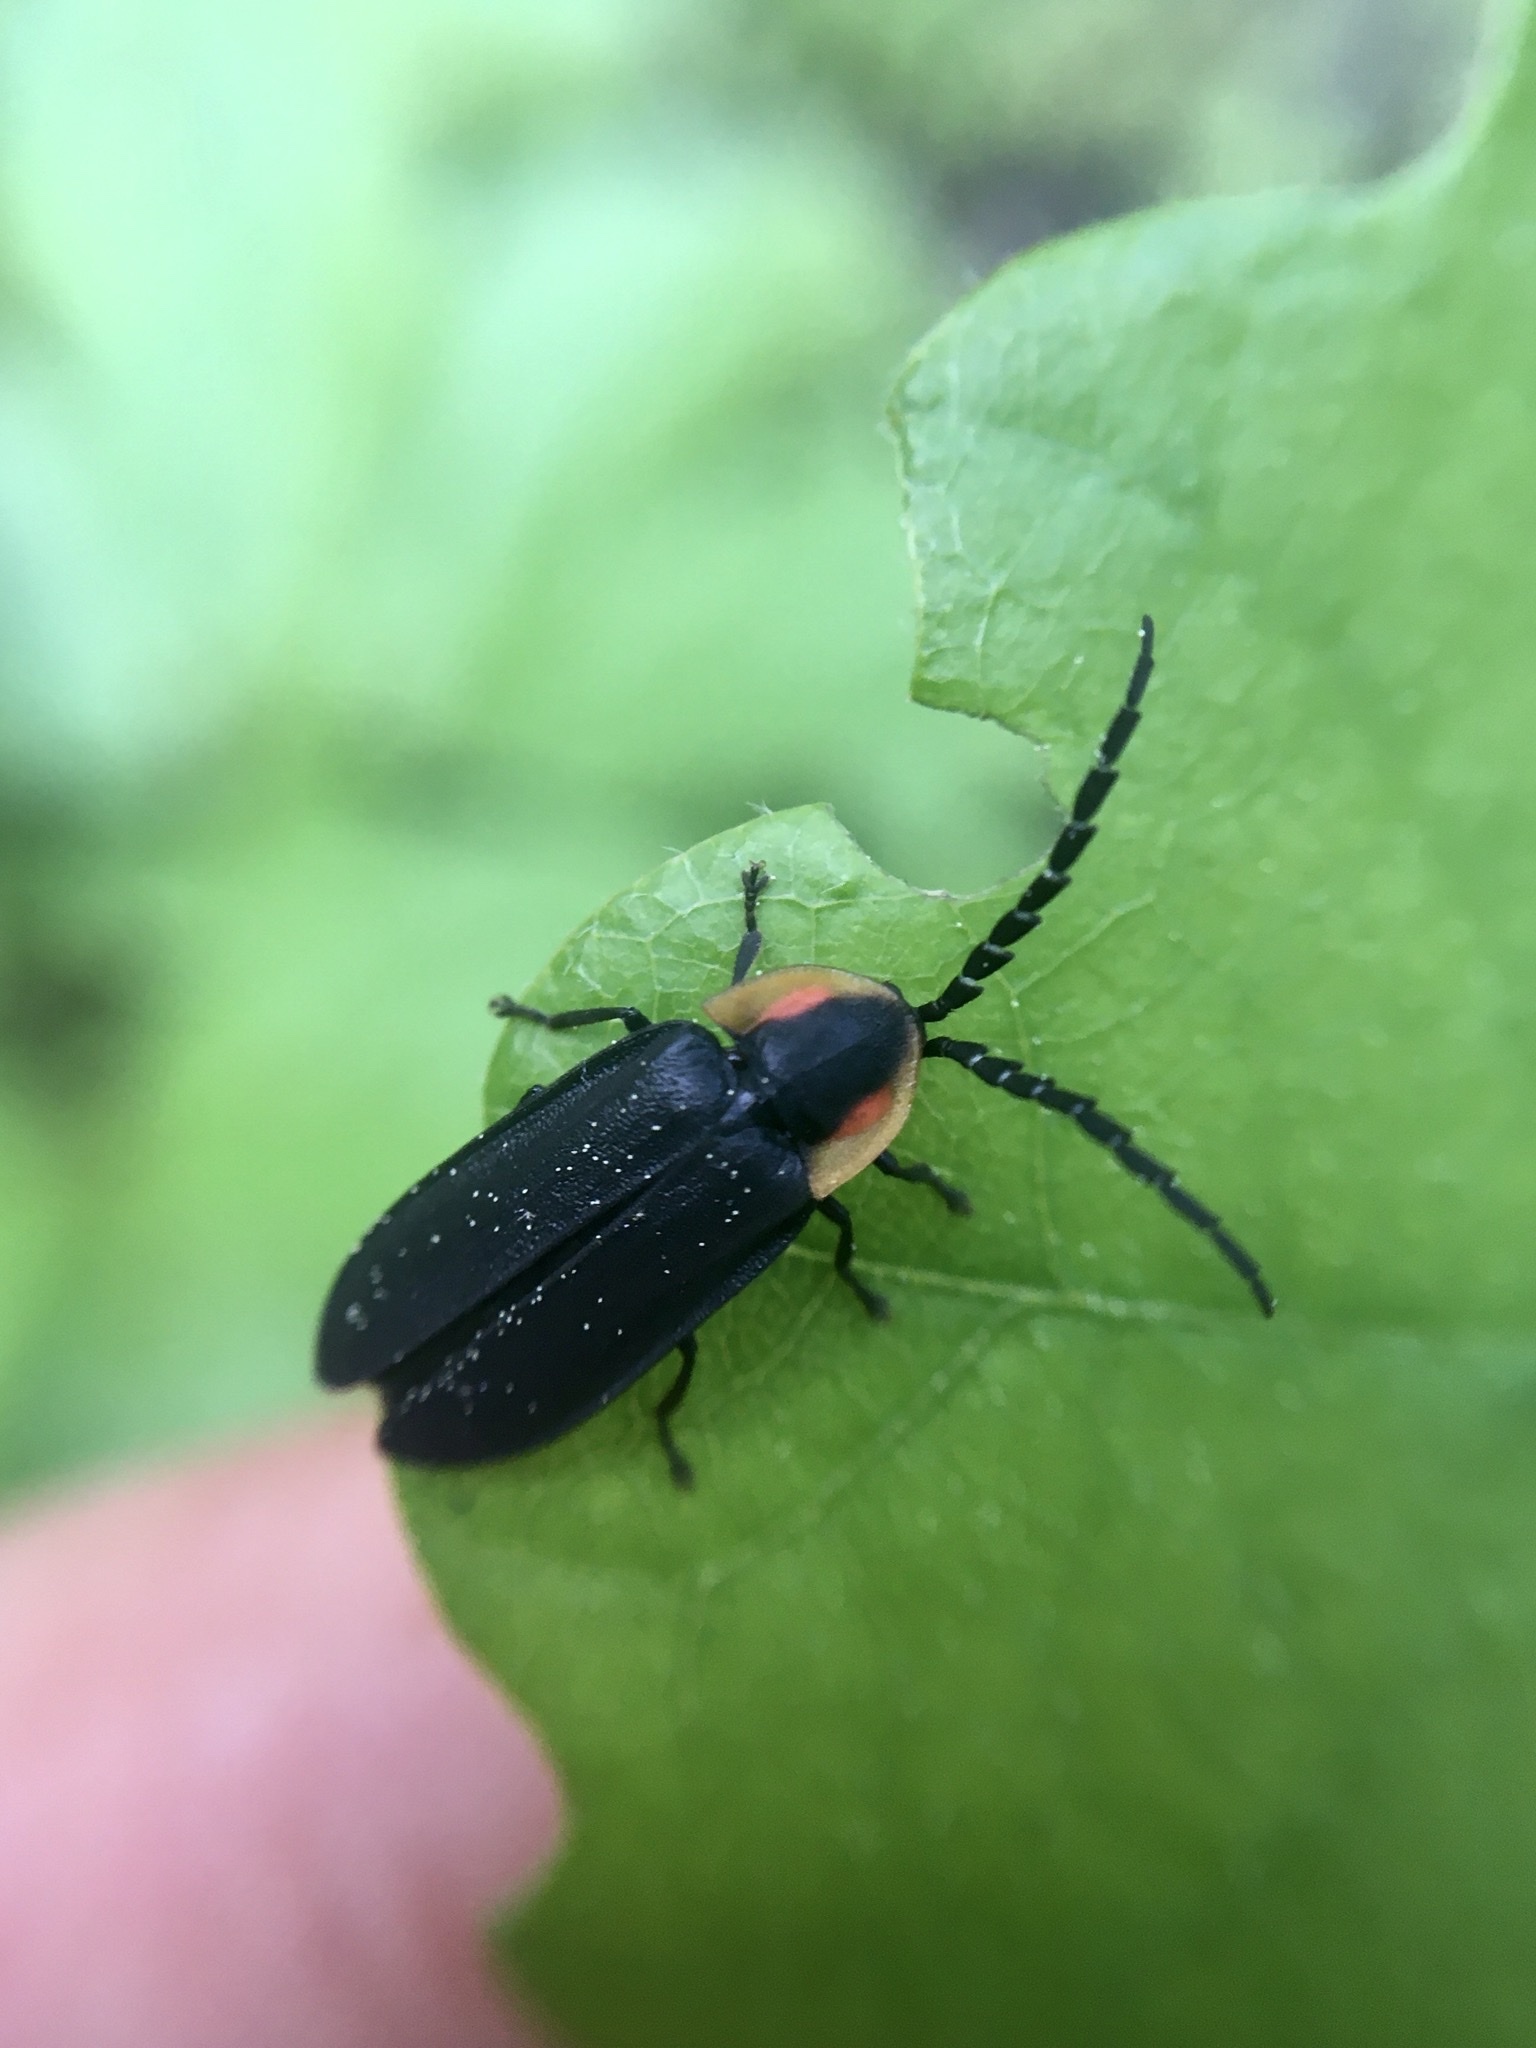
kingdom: Animalia
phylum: Arthropoda
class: Insecta
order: Coleoptera
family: Lampyridae
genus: Lucidota
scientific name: Lucidota atra
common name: Black firefly
